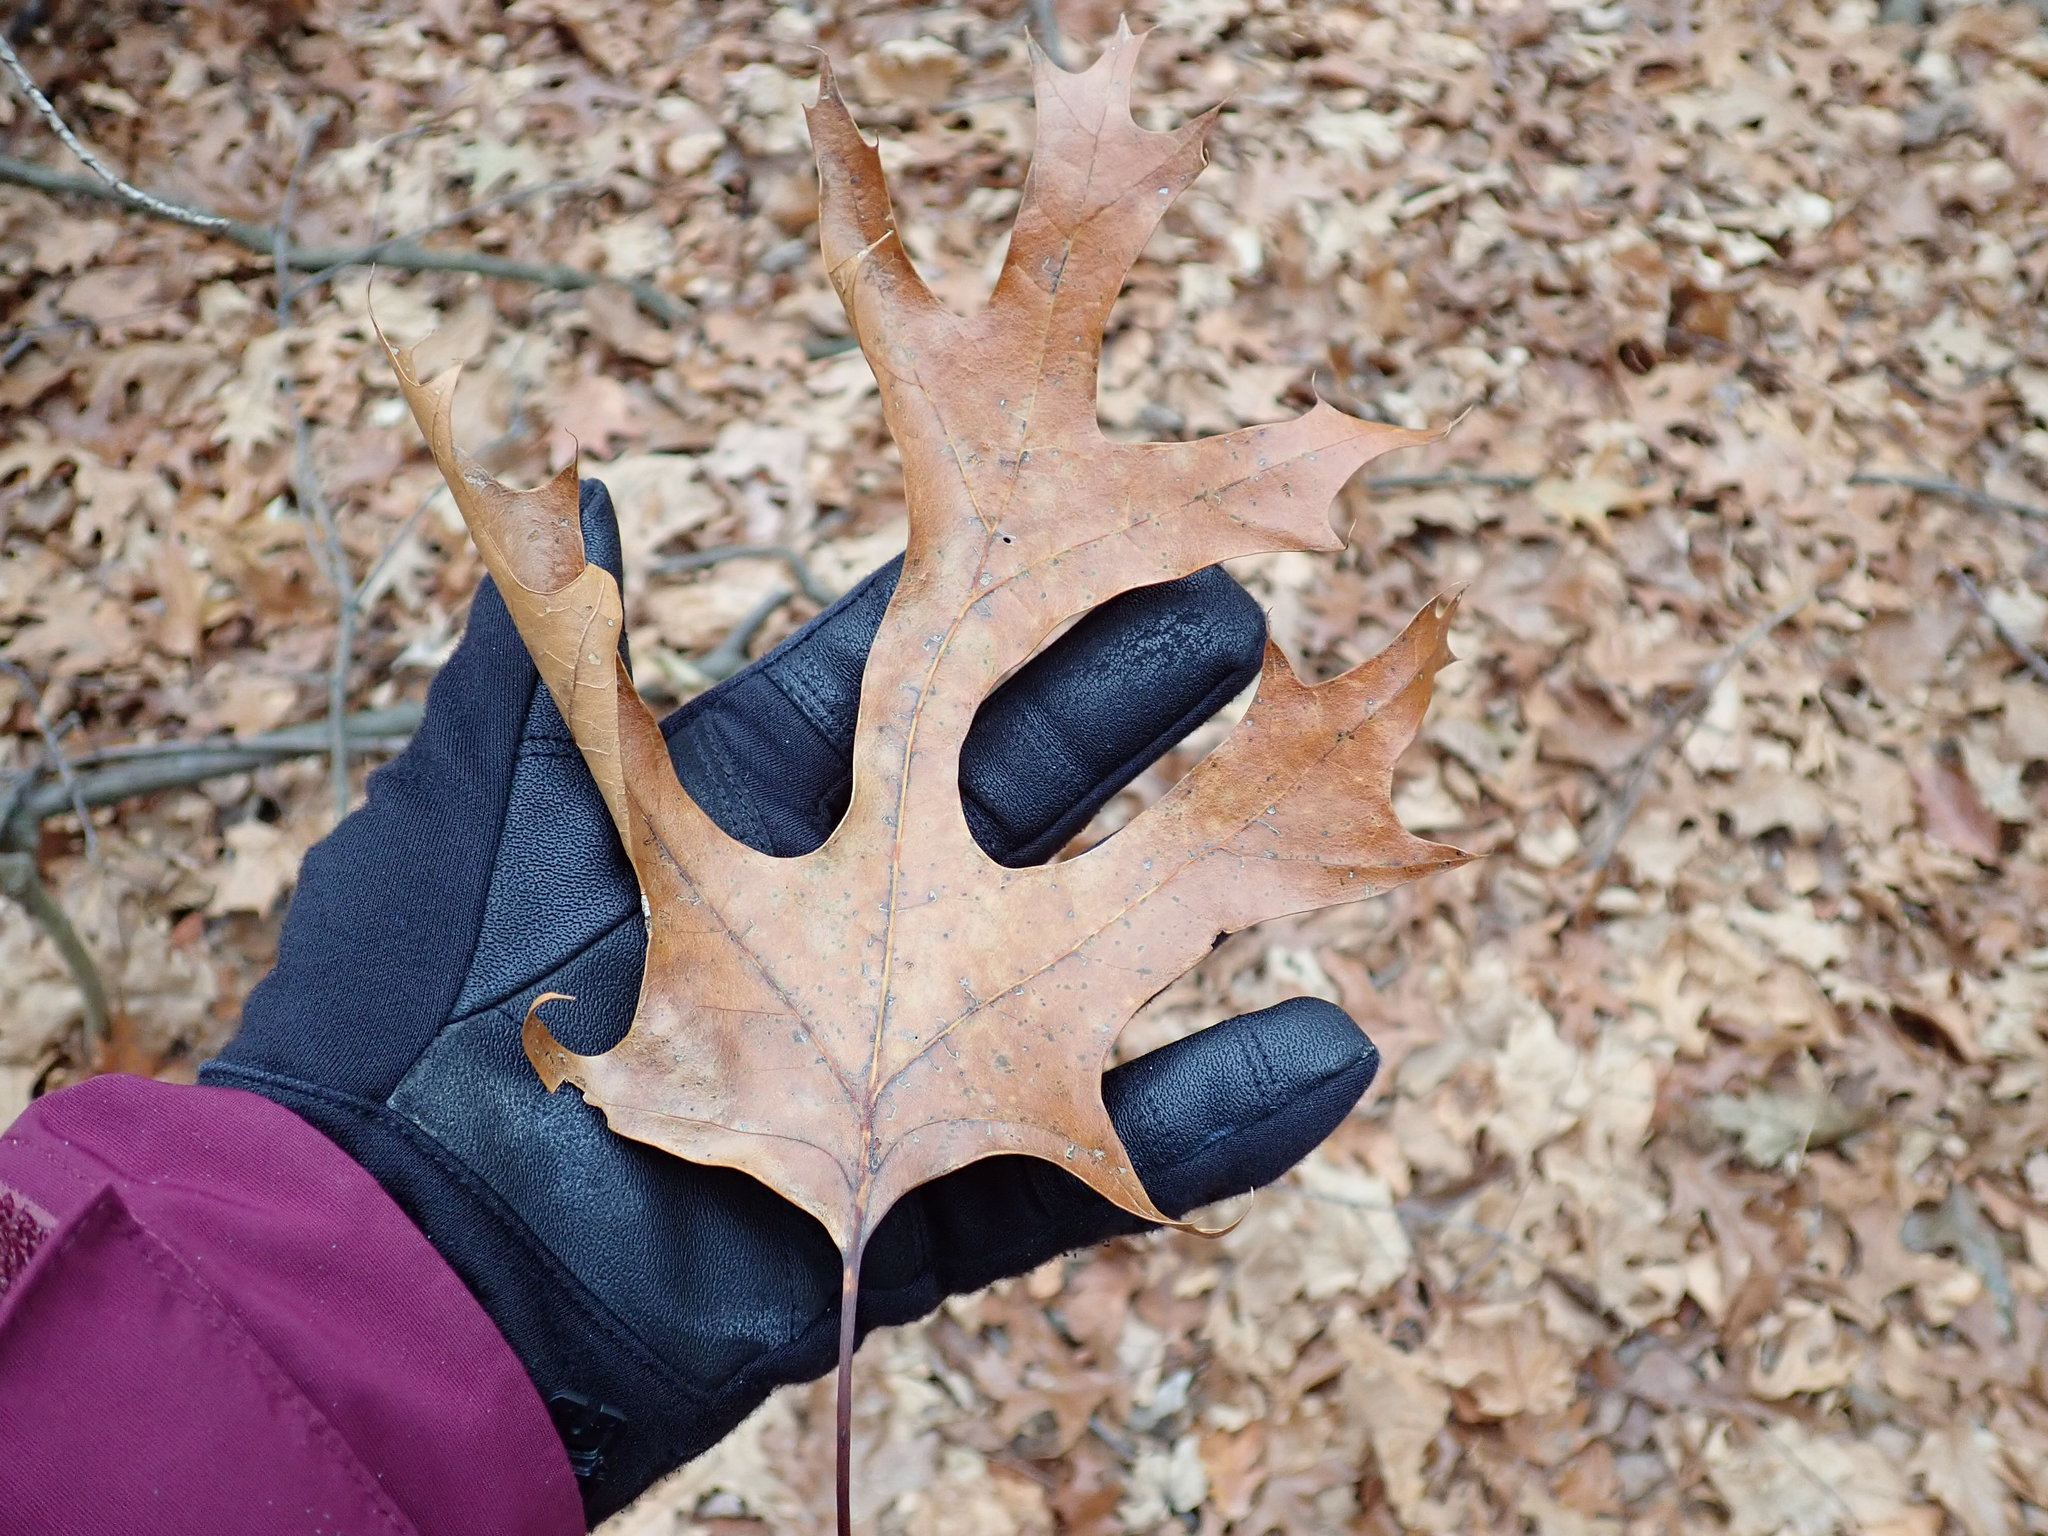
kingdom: Plantae
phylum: Tracheophyta
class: Magnoliopsida
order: Fagales
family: Fagaceae
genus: Quercus
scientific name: Quercus coccinea
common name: Scarlet oak
